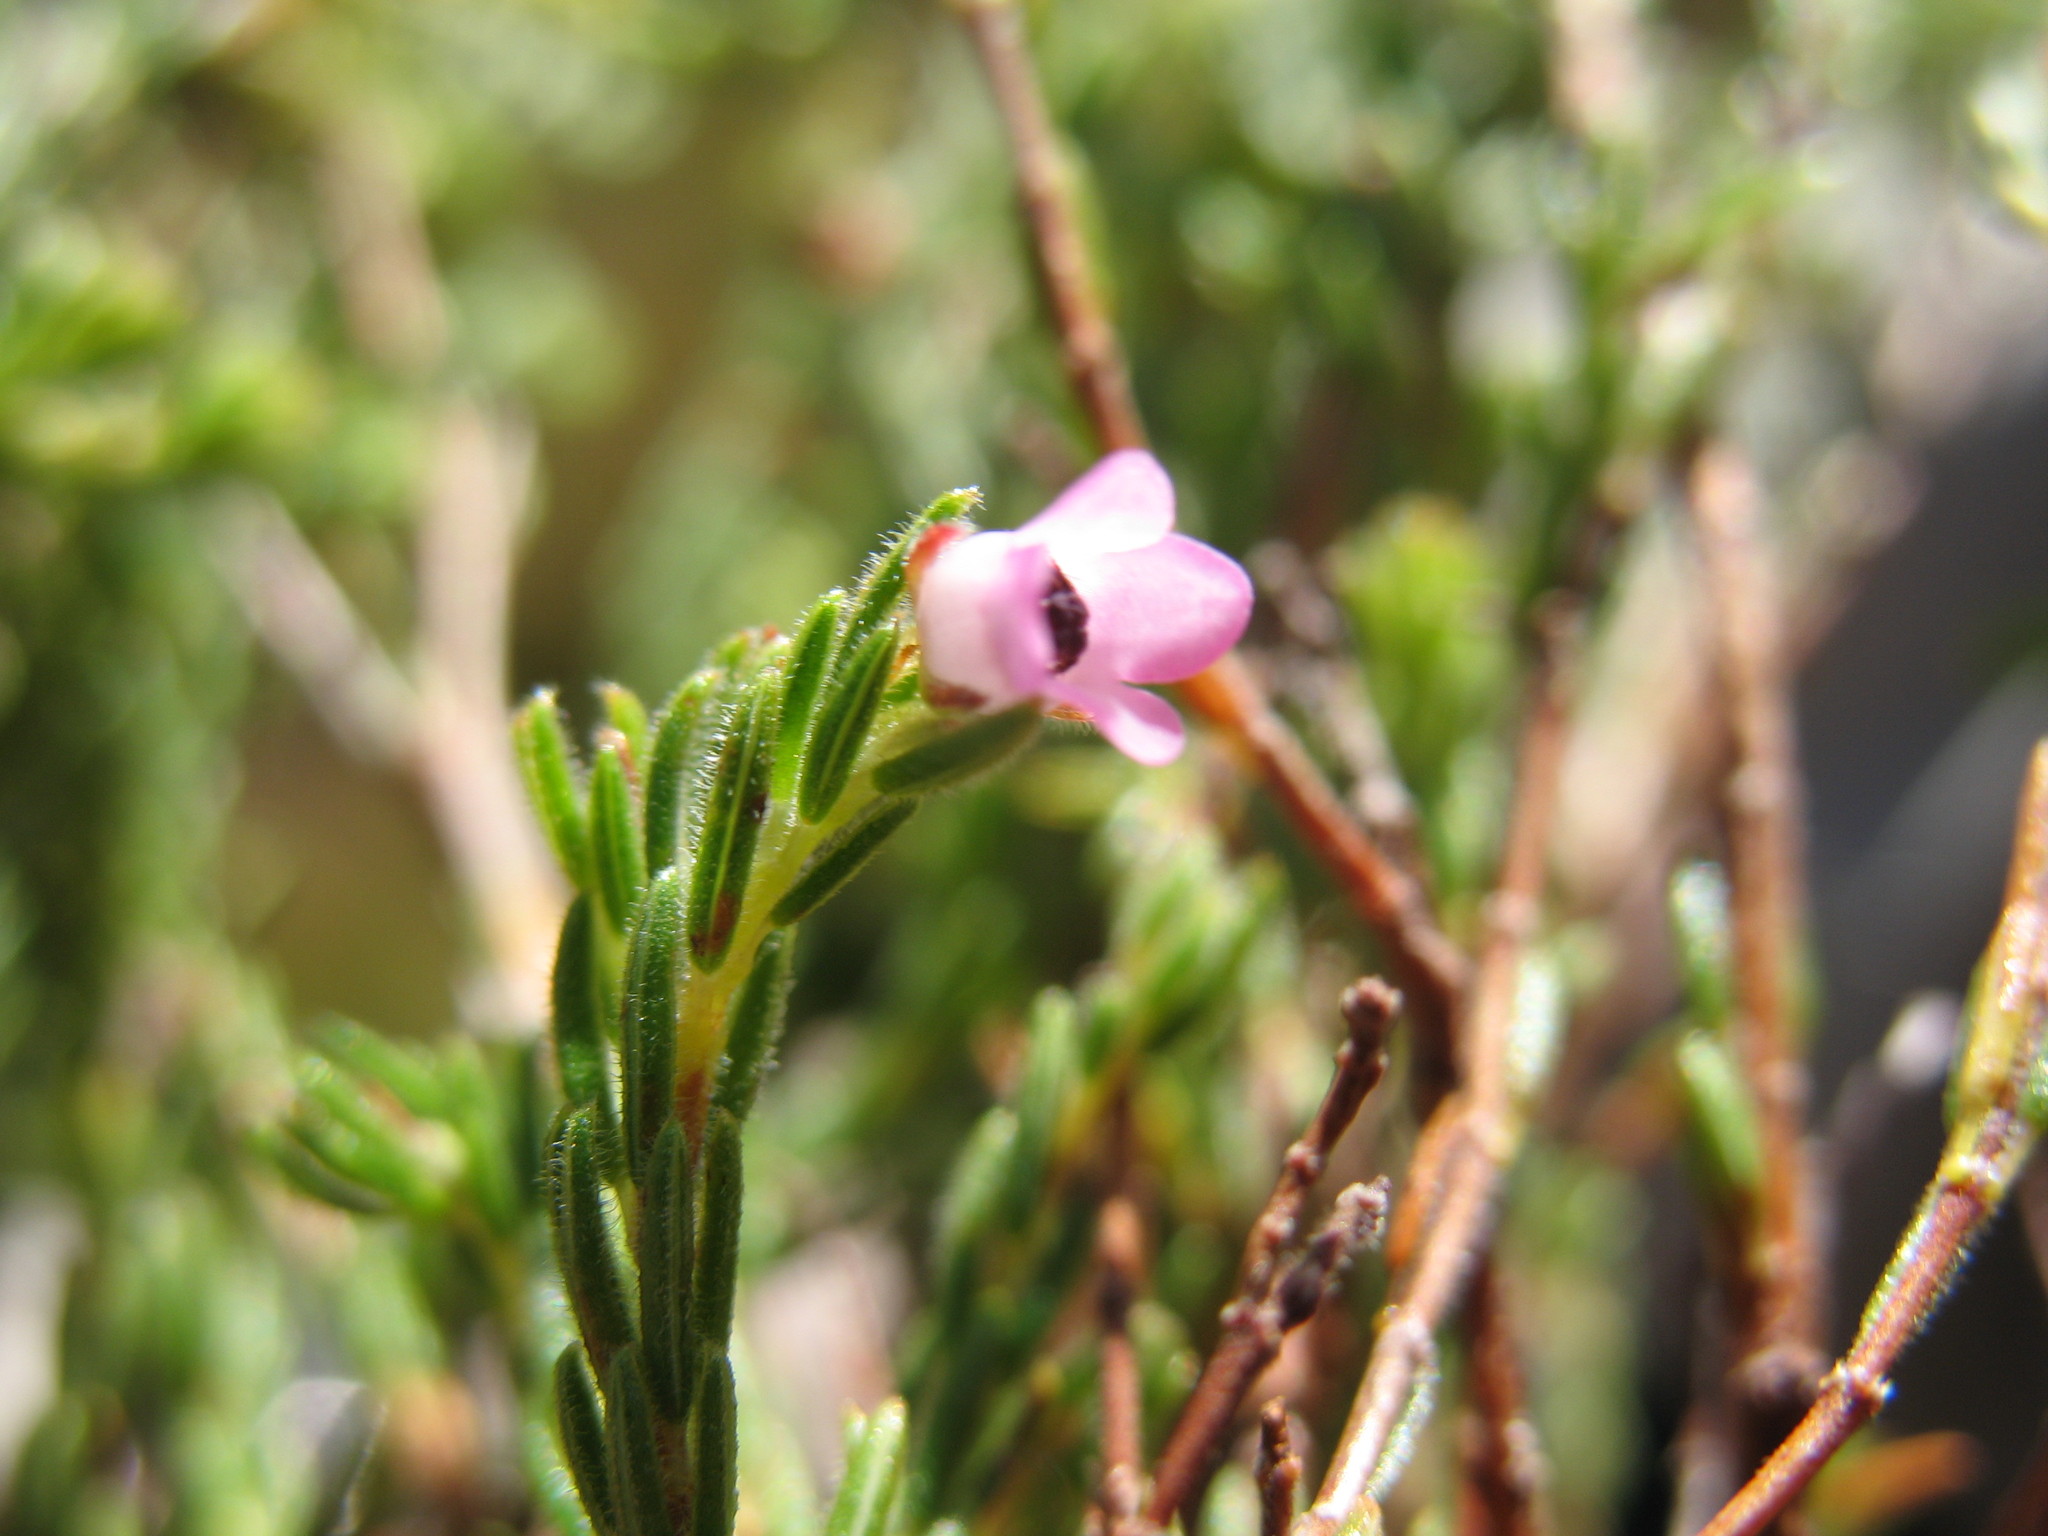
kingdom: Plantae
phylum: Tracheophyta
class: Magnoliopsida
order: Ericales
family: Ericaceae
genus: Erica
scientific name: Erica chionophila
